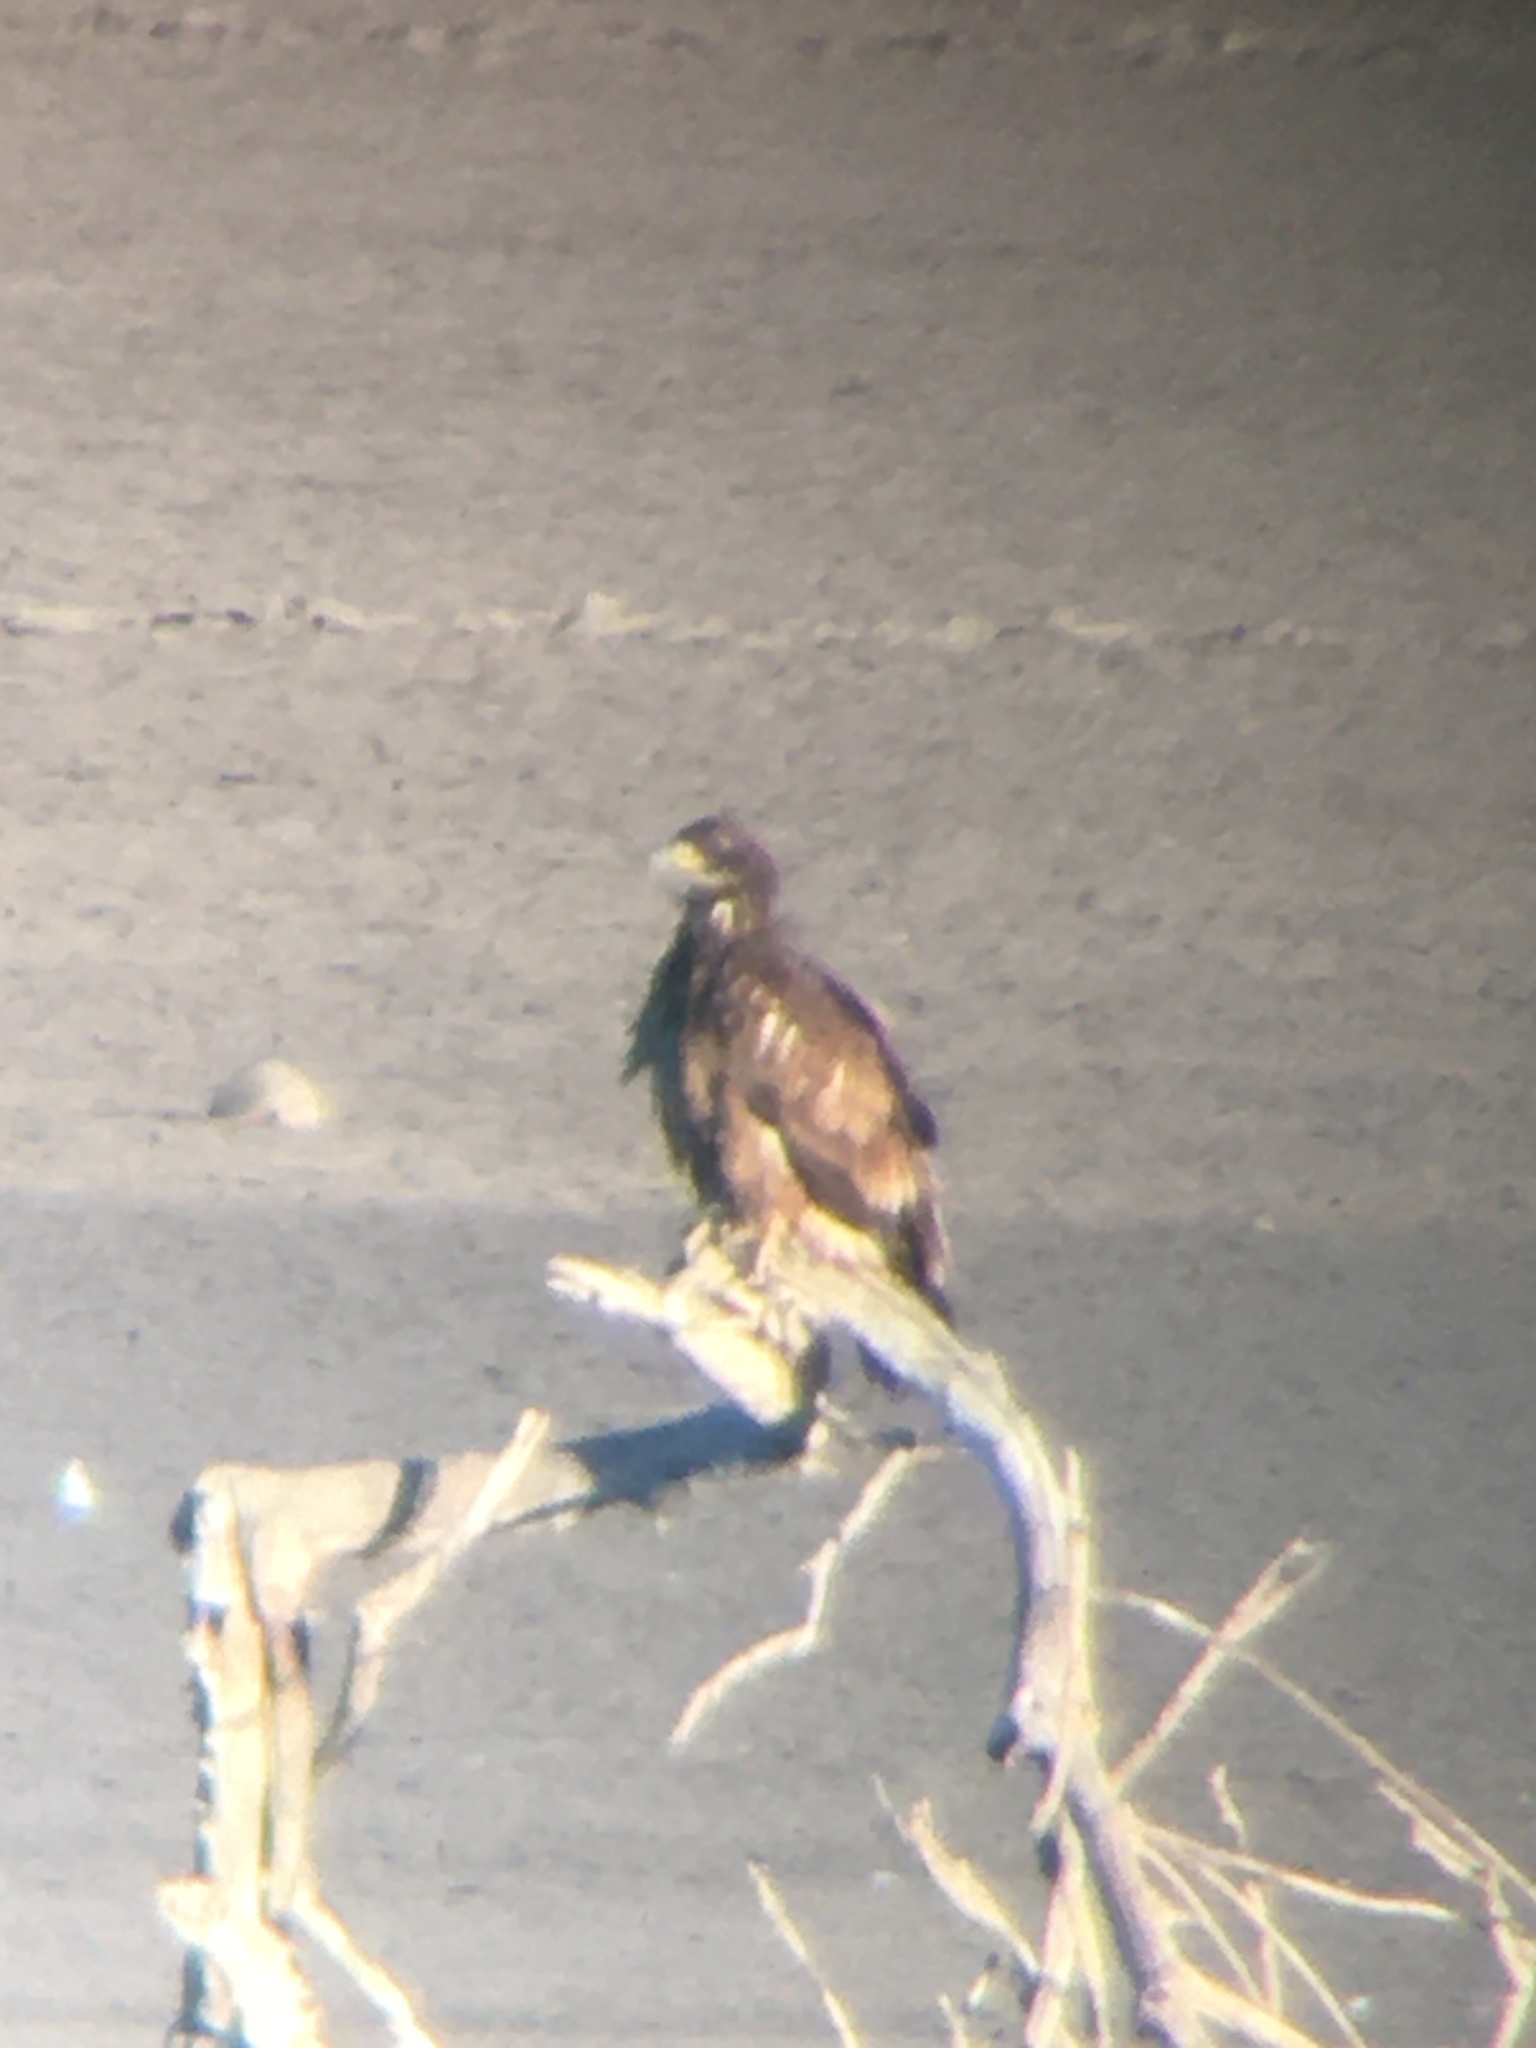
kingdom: Animalia
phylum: Chordata
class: Aves
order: Accipitriformes
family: Accipitridae
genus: Haliaeetus
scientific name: Haliaeetus leucocephalus
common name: Bald eagle
